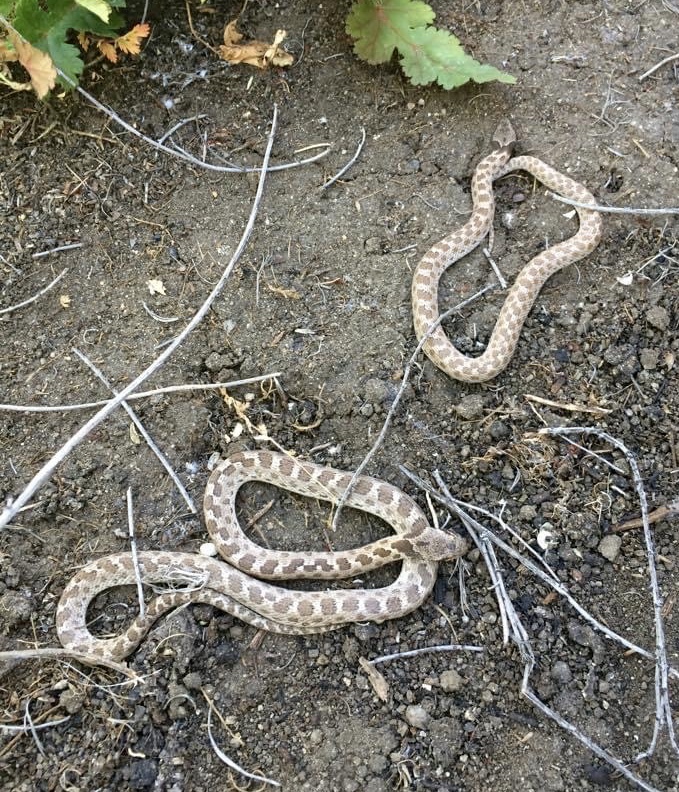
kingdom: Animalia
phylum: Chordata
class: Squamata
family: Colubridae
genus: Hypsiglena
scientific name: Hypsiglena ochrorhynchus
